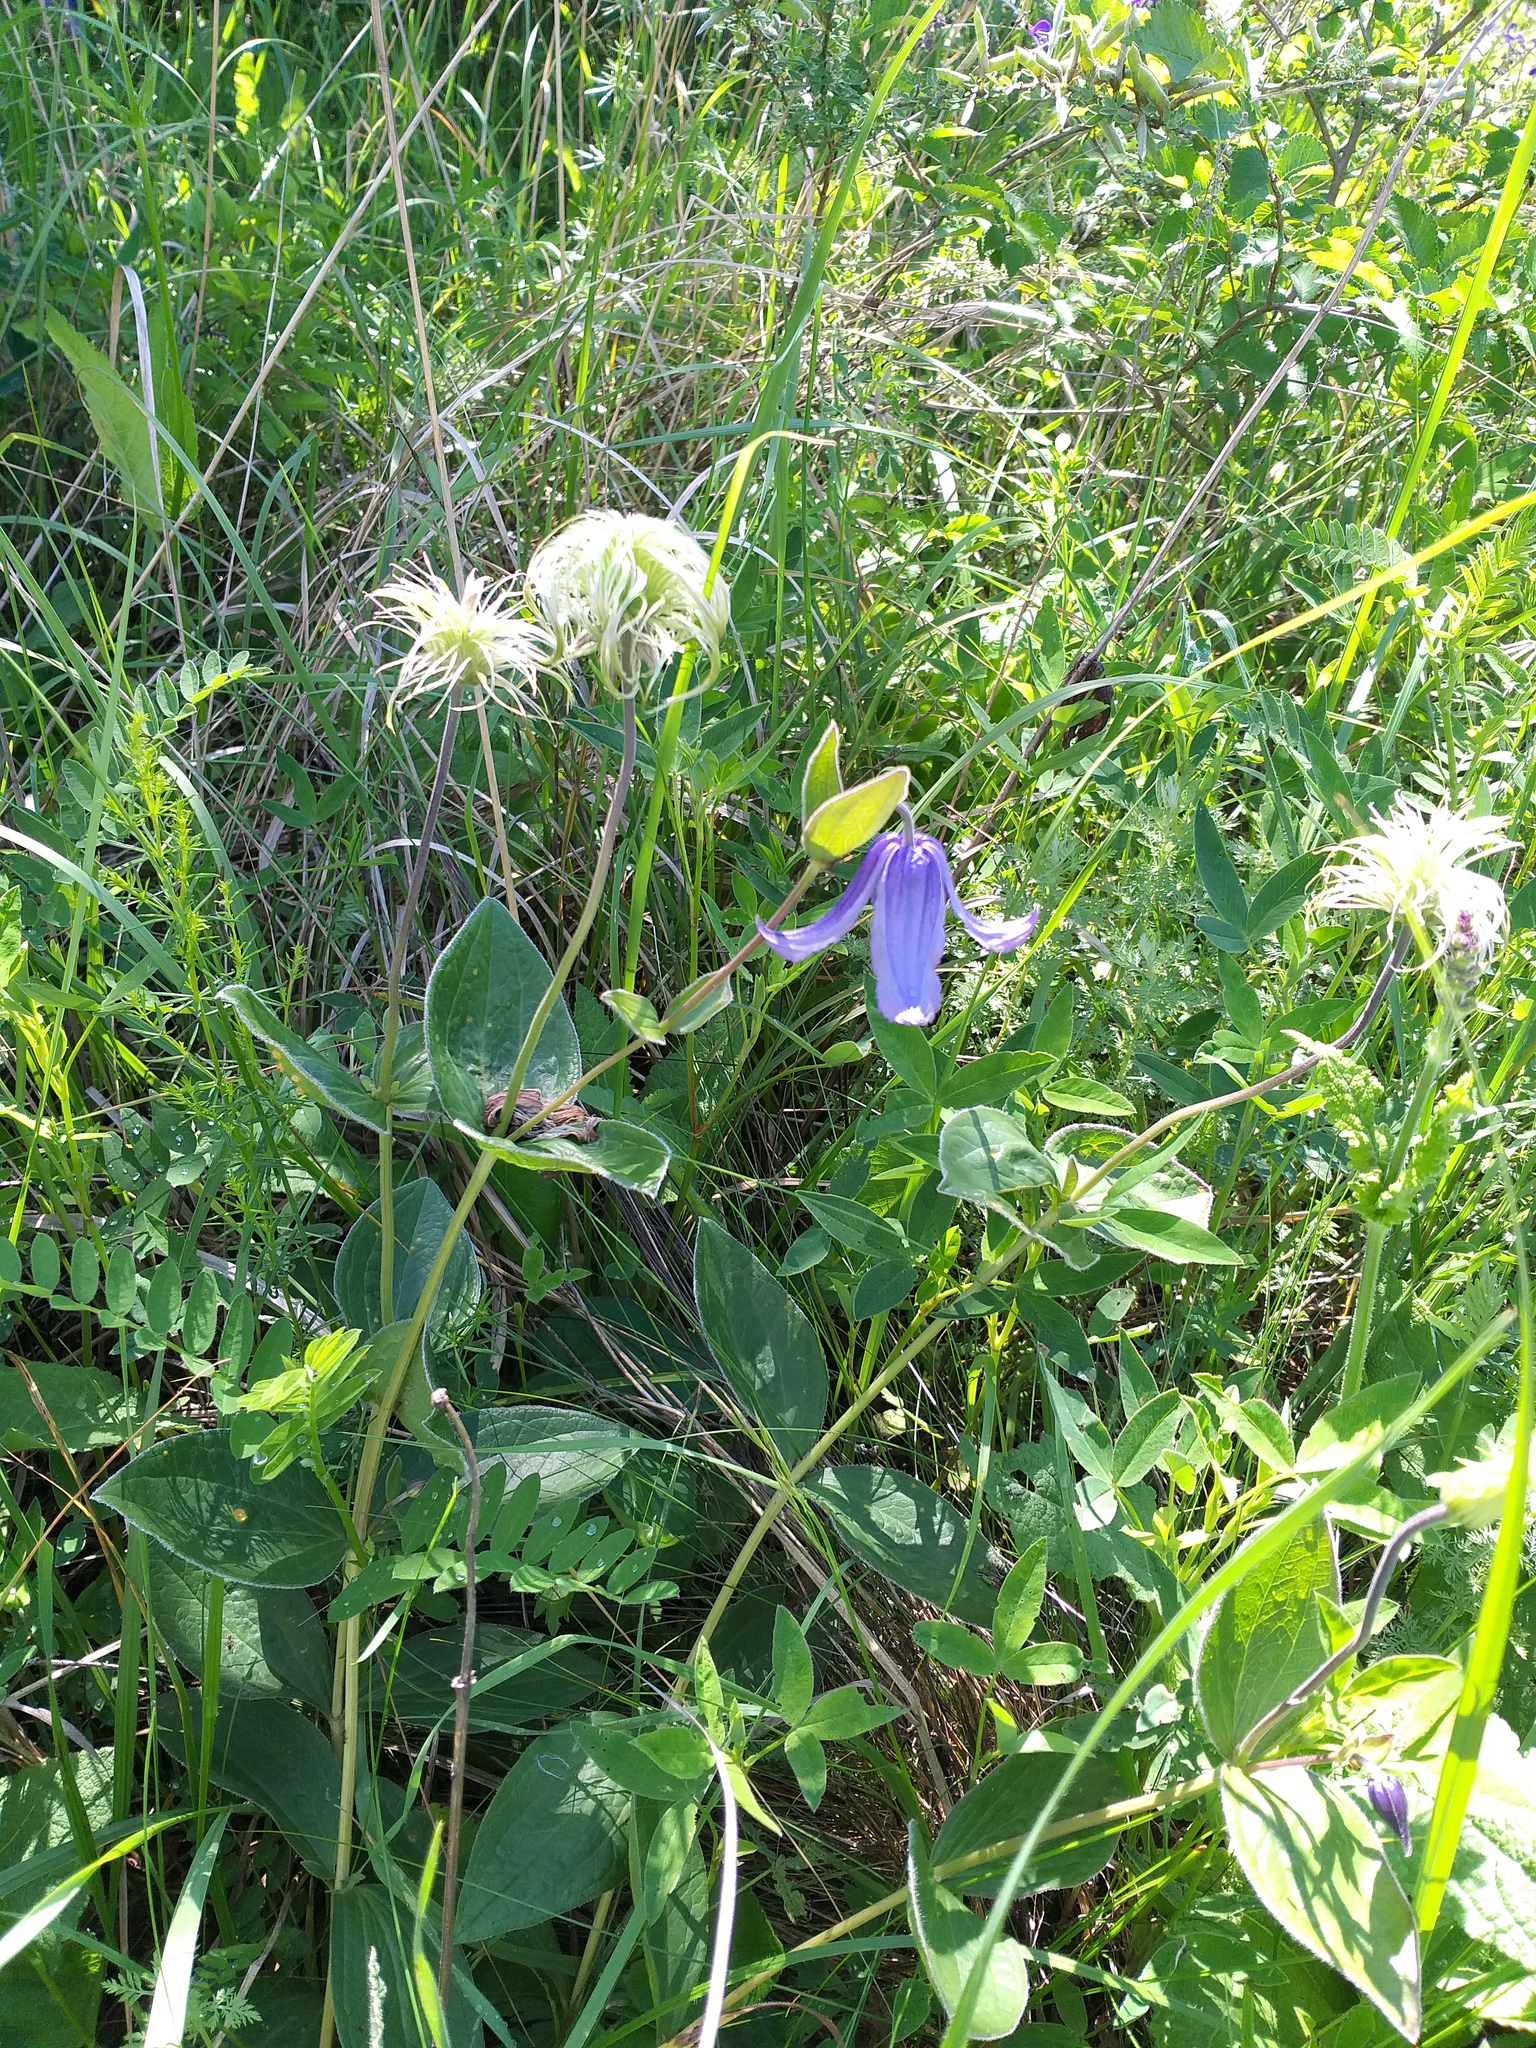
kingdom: Plantae
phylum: Tracheophyta
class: Magnoliopsida
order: Ranunculales
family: Ranunculaceae
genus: Clematis
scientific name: Clematis integrifolia
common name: Solitary clematis
